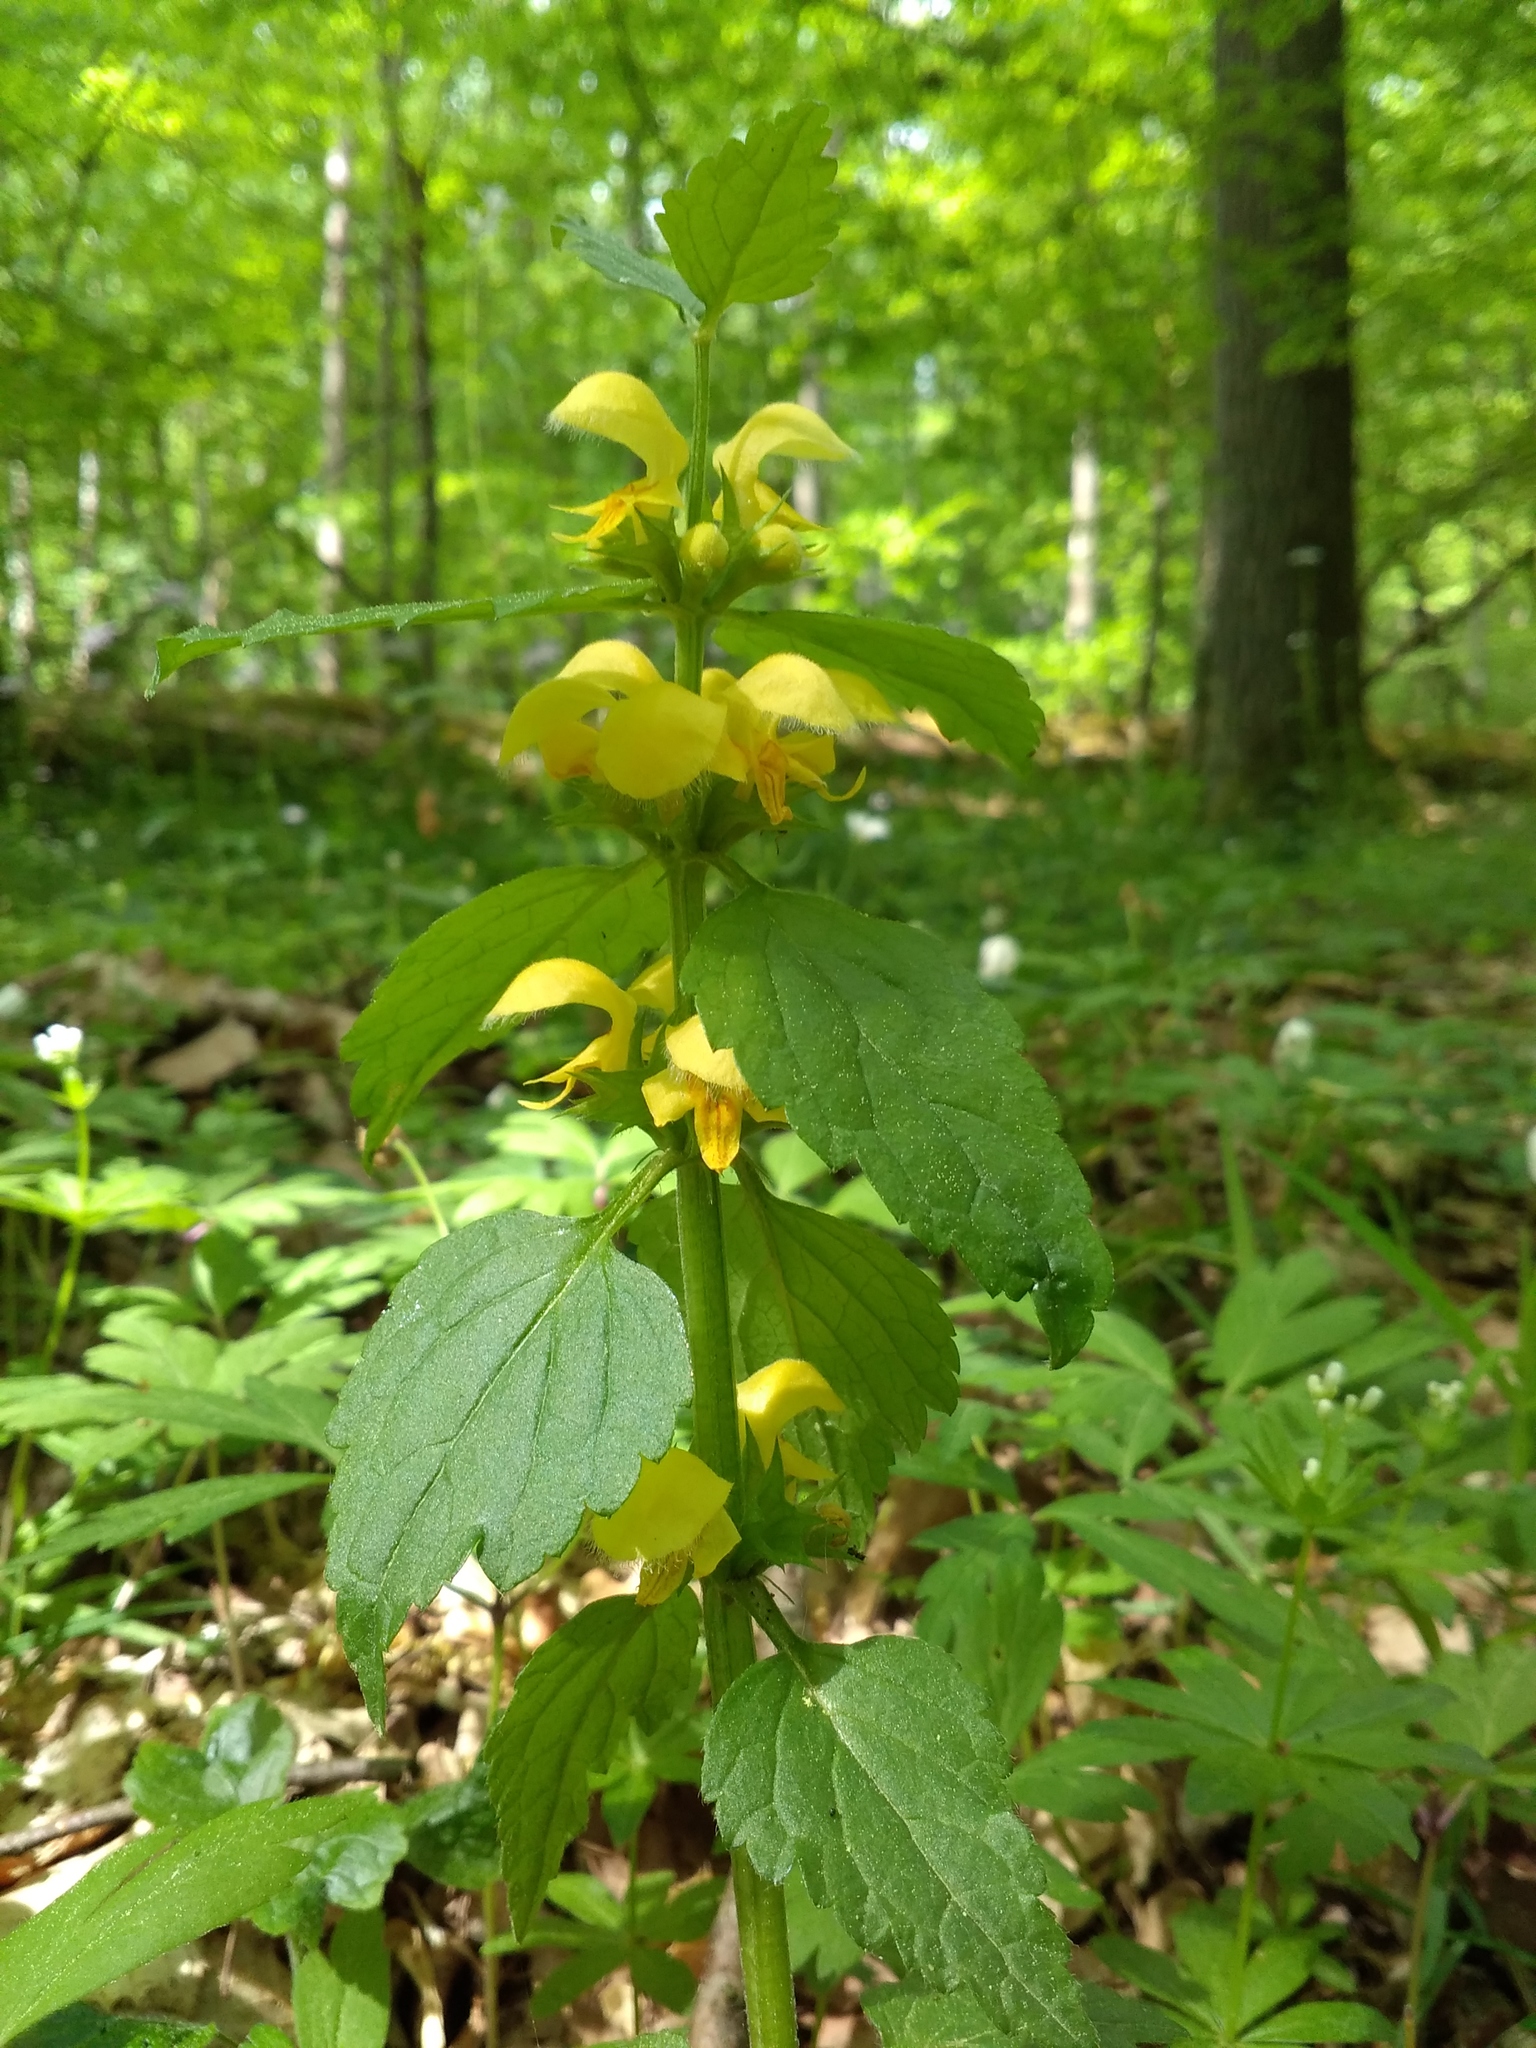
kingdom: Plantae
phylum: Tracheophyta
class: Magnoliopsida
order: Lamiales
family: Lamiaceae
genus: Lamium
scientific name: Lamium galeobdolon
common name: Yellow archangel
